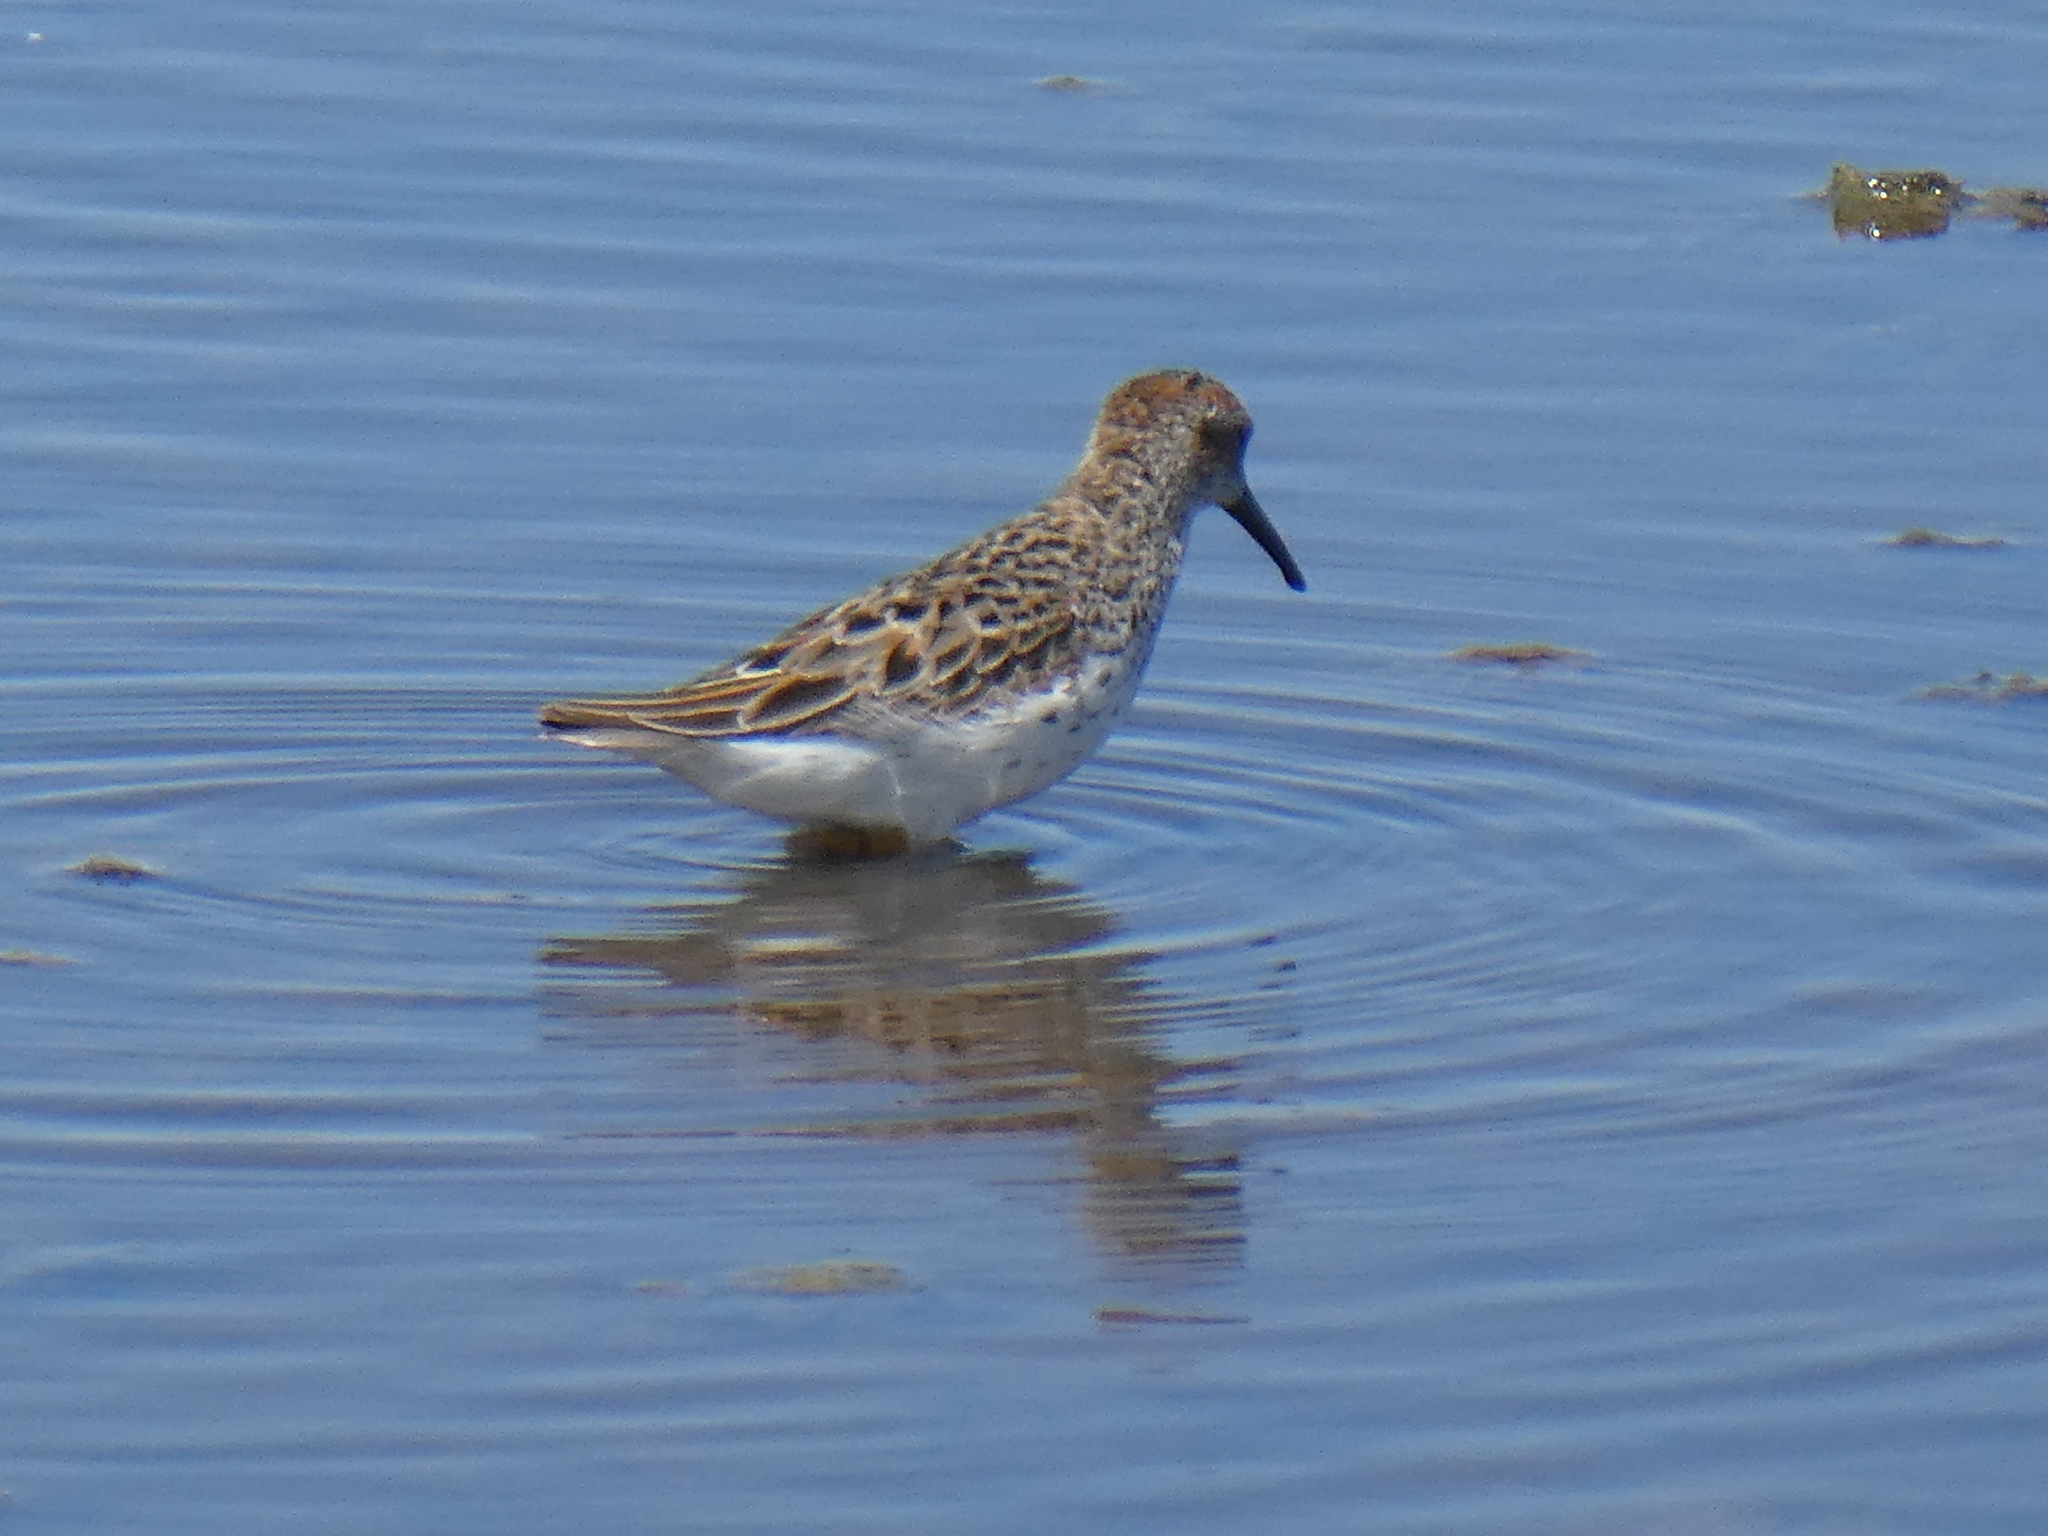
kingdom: Animalia
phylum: Chordata
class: Aves
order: Charadriiformes
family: Scolopacidae
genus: Calidris
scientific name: Calidris mauri
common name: Western sandpiper
